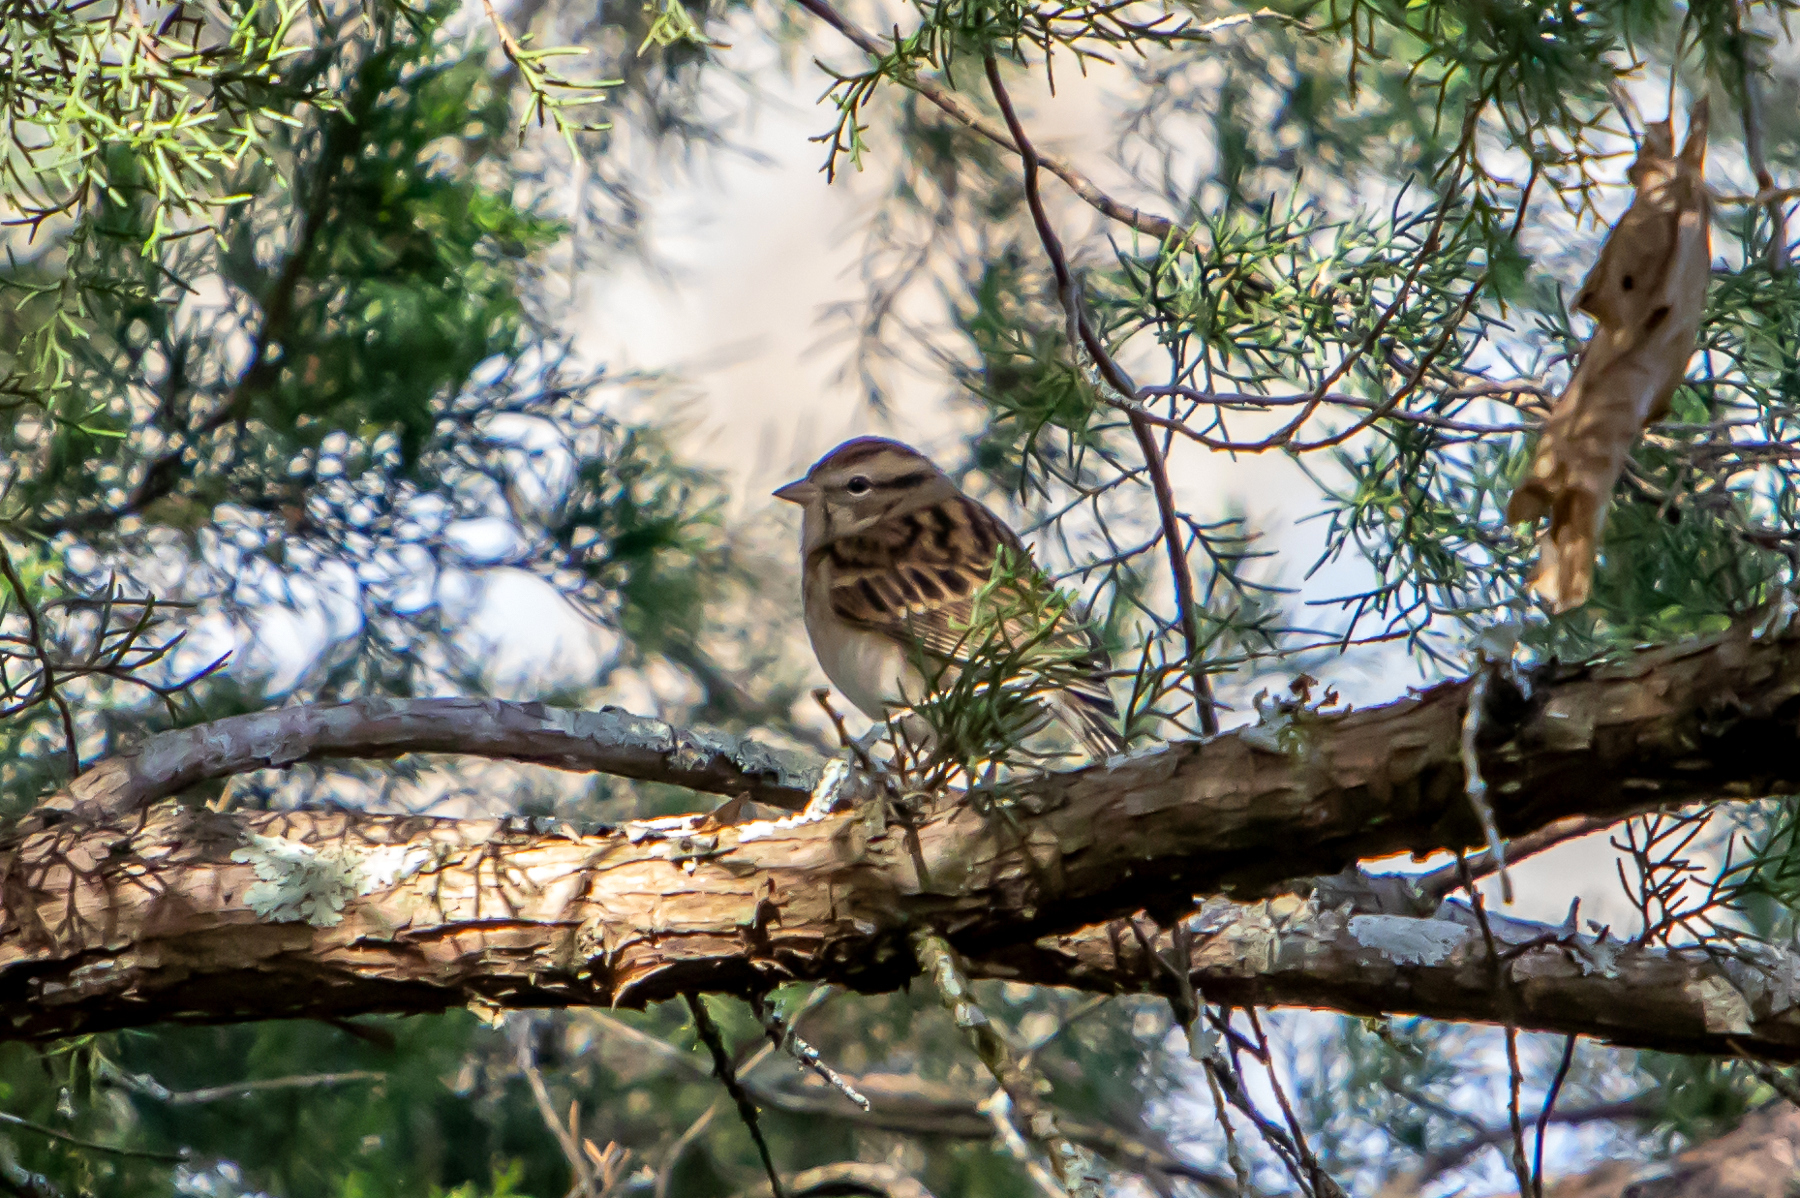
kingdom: Animalia
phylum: Chordata
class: Aves
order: Passeriformes
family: Passerellidae
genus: Spizella
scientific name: Spizella passerina
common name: Chipping sparrow
